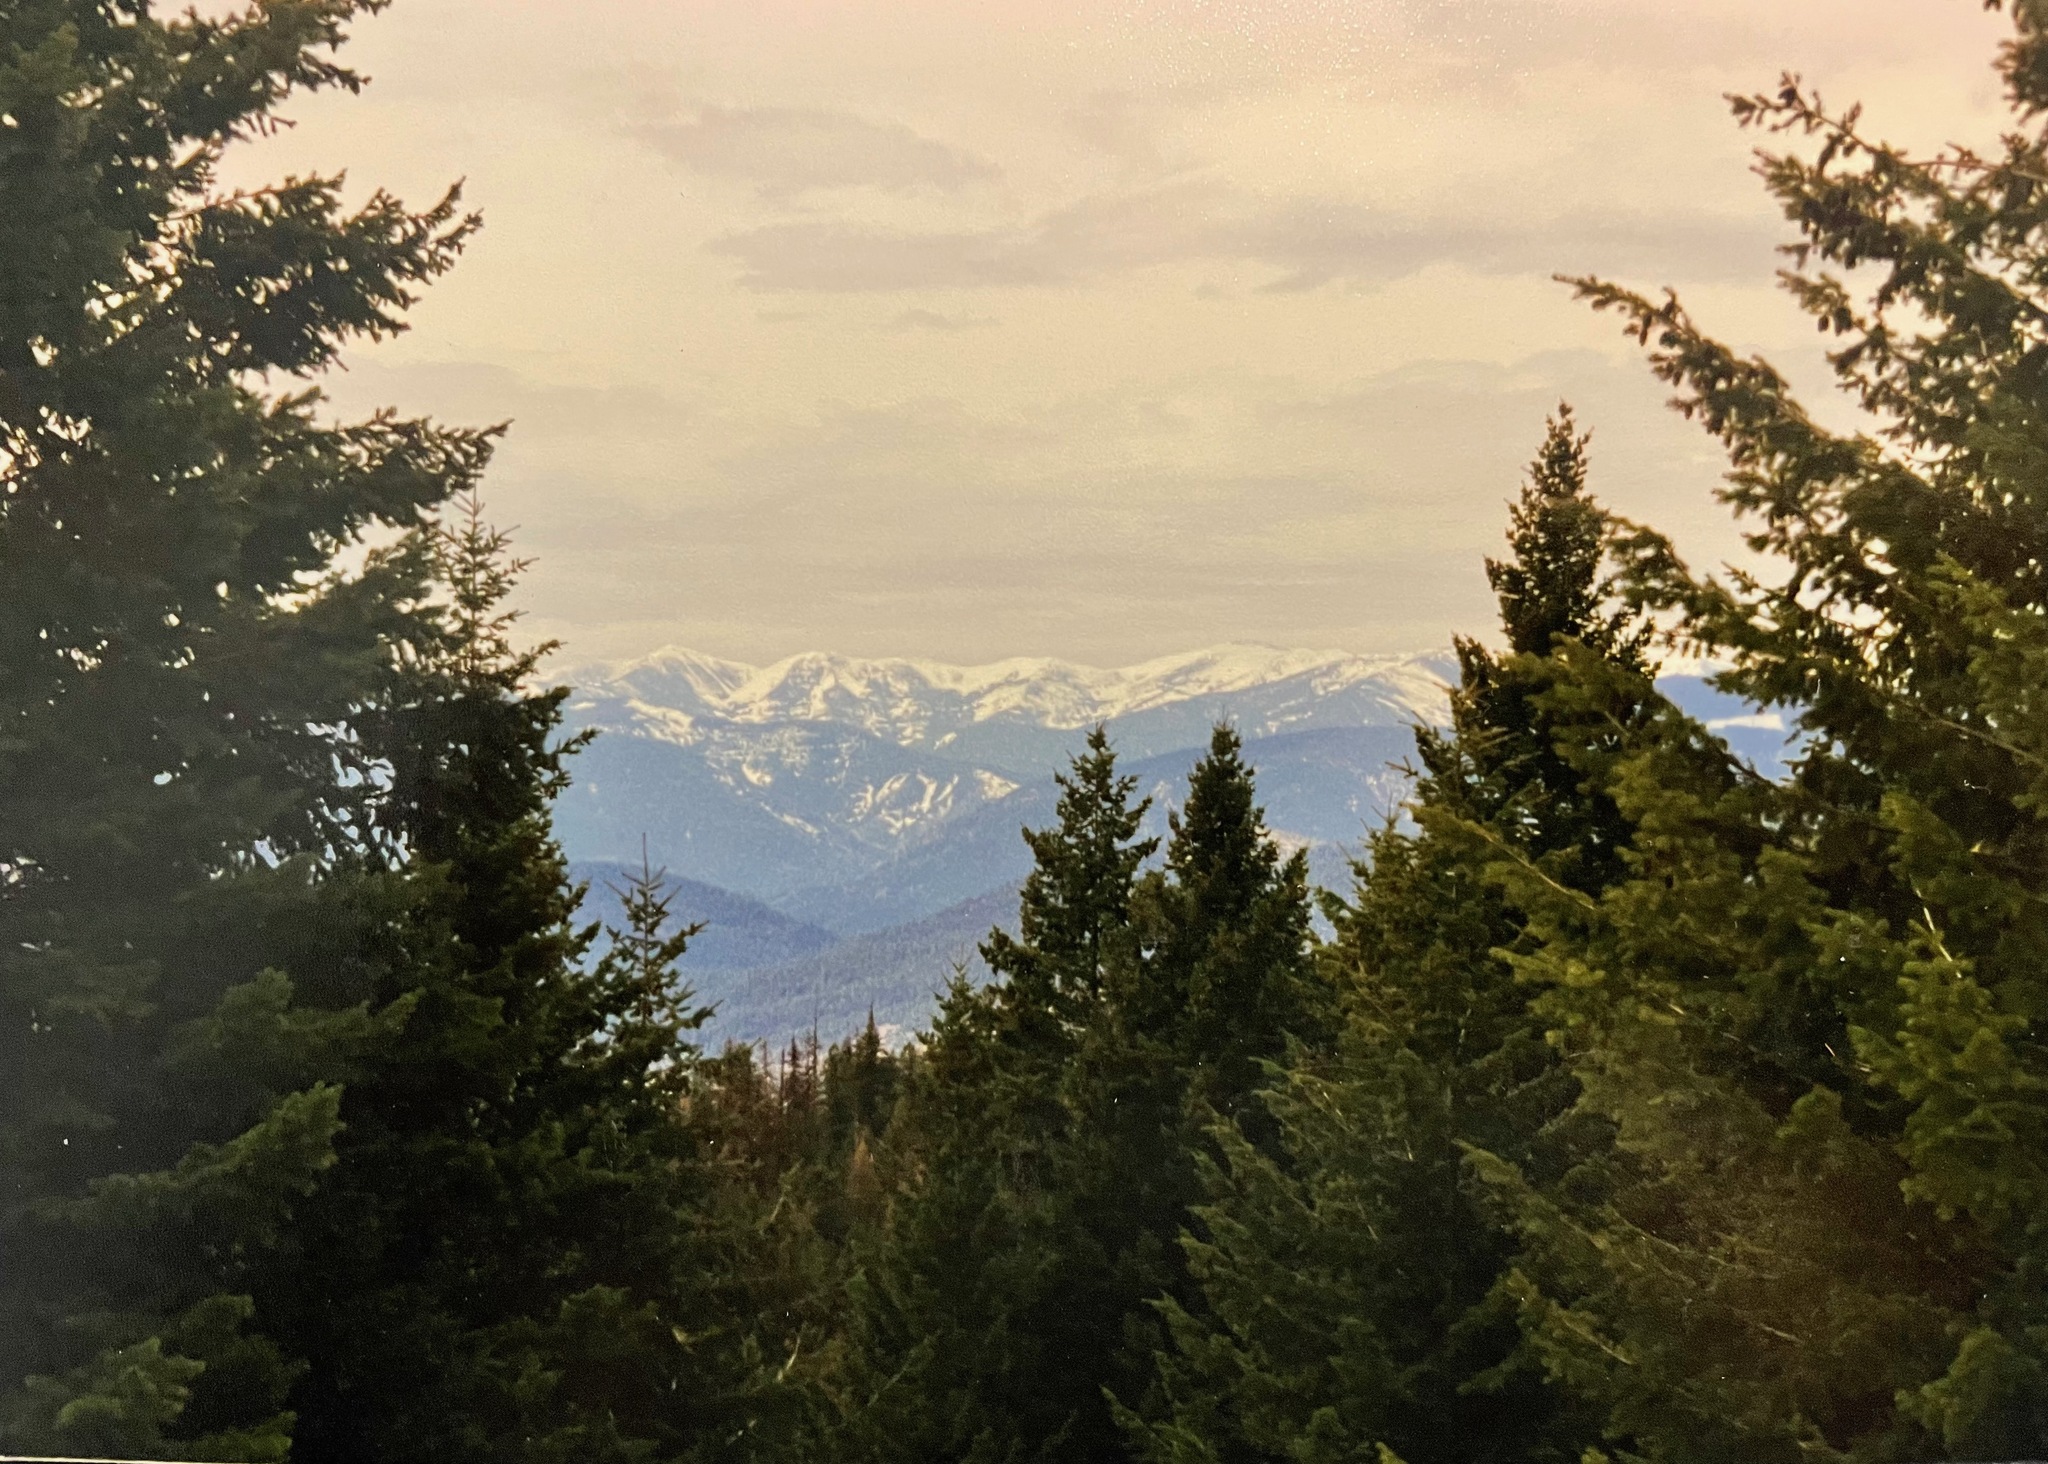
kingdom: Plantae
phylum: Tracheophyta
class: Pinopsida
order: Pinales
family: Pinaceae
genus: Pseudotsuga
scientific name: Pseudotsuga menziesii
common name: Douglas fir
